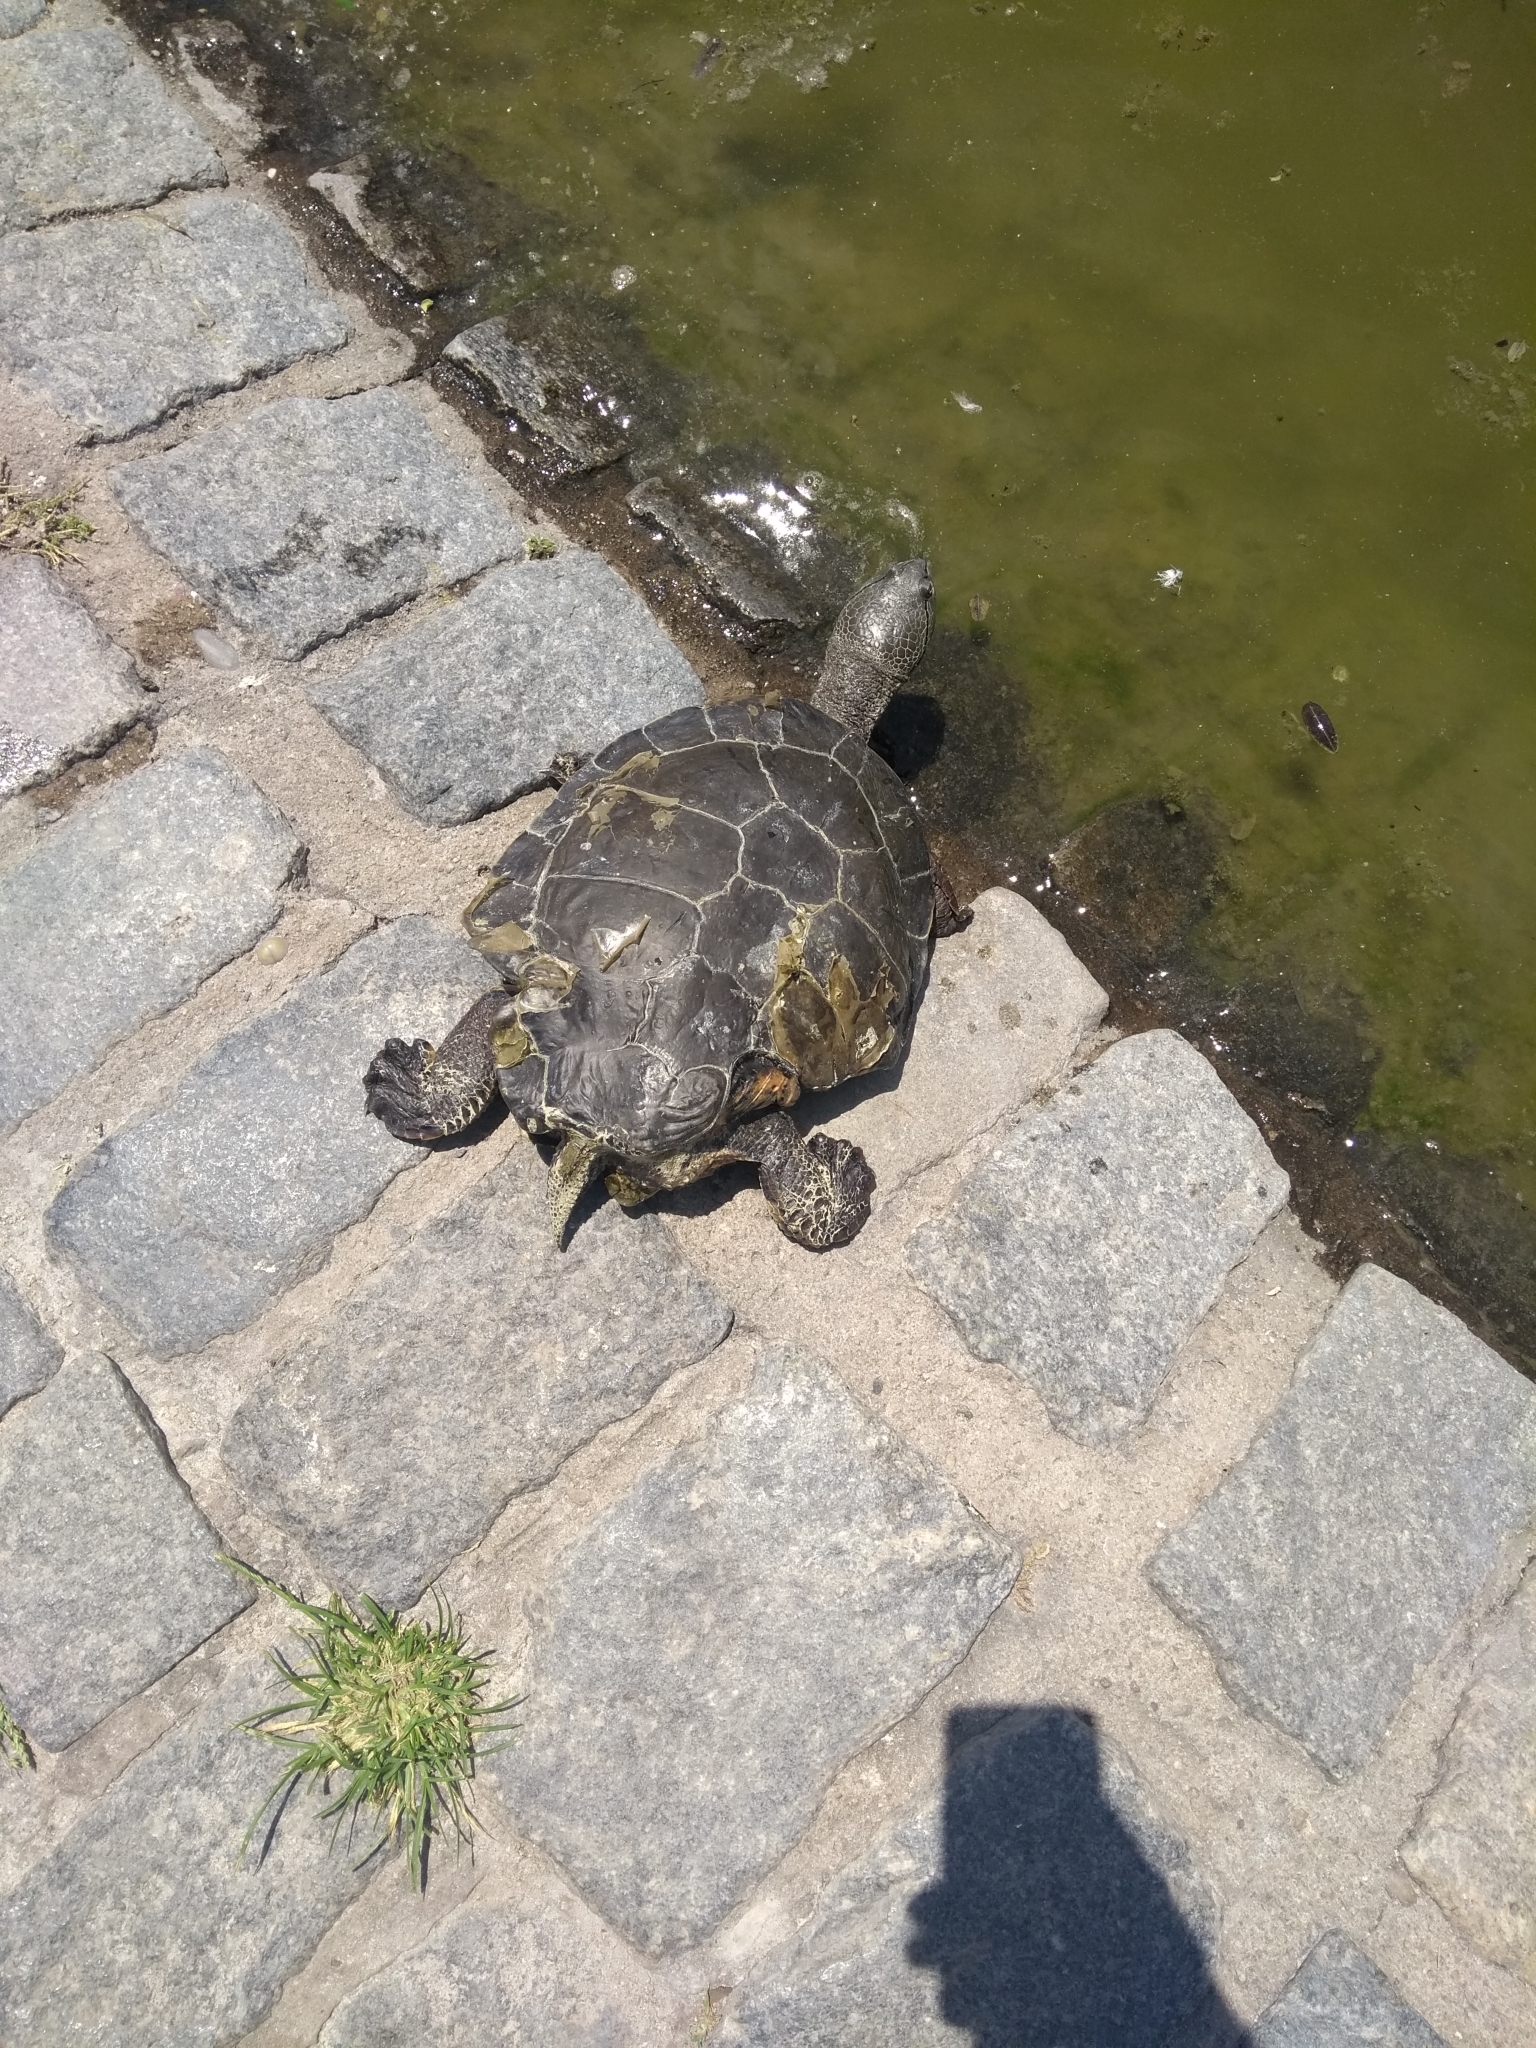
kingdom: Animalia
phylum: Chordata
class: Testudines
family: Chelidae
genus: Phrynops
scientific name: Phrynops hilarii
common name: Side-necked turtle of saint hillaire
